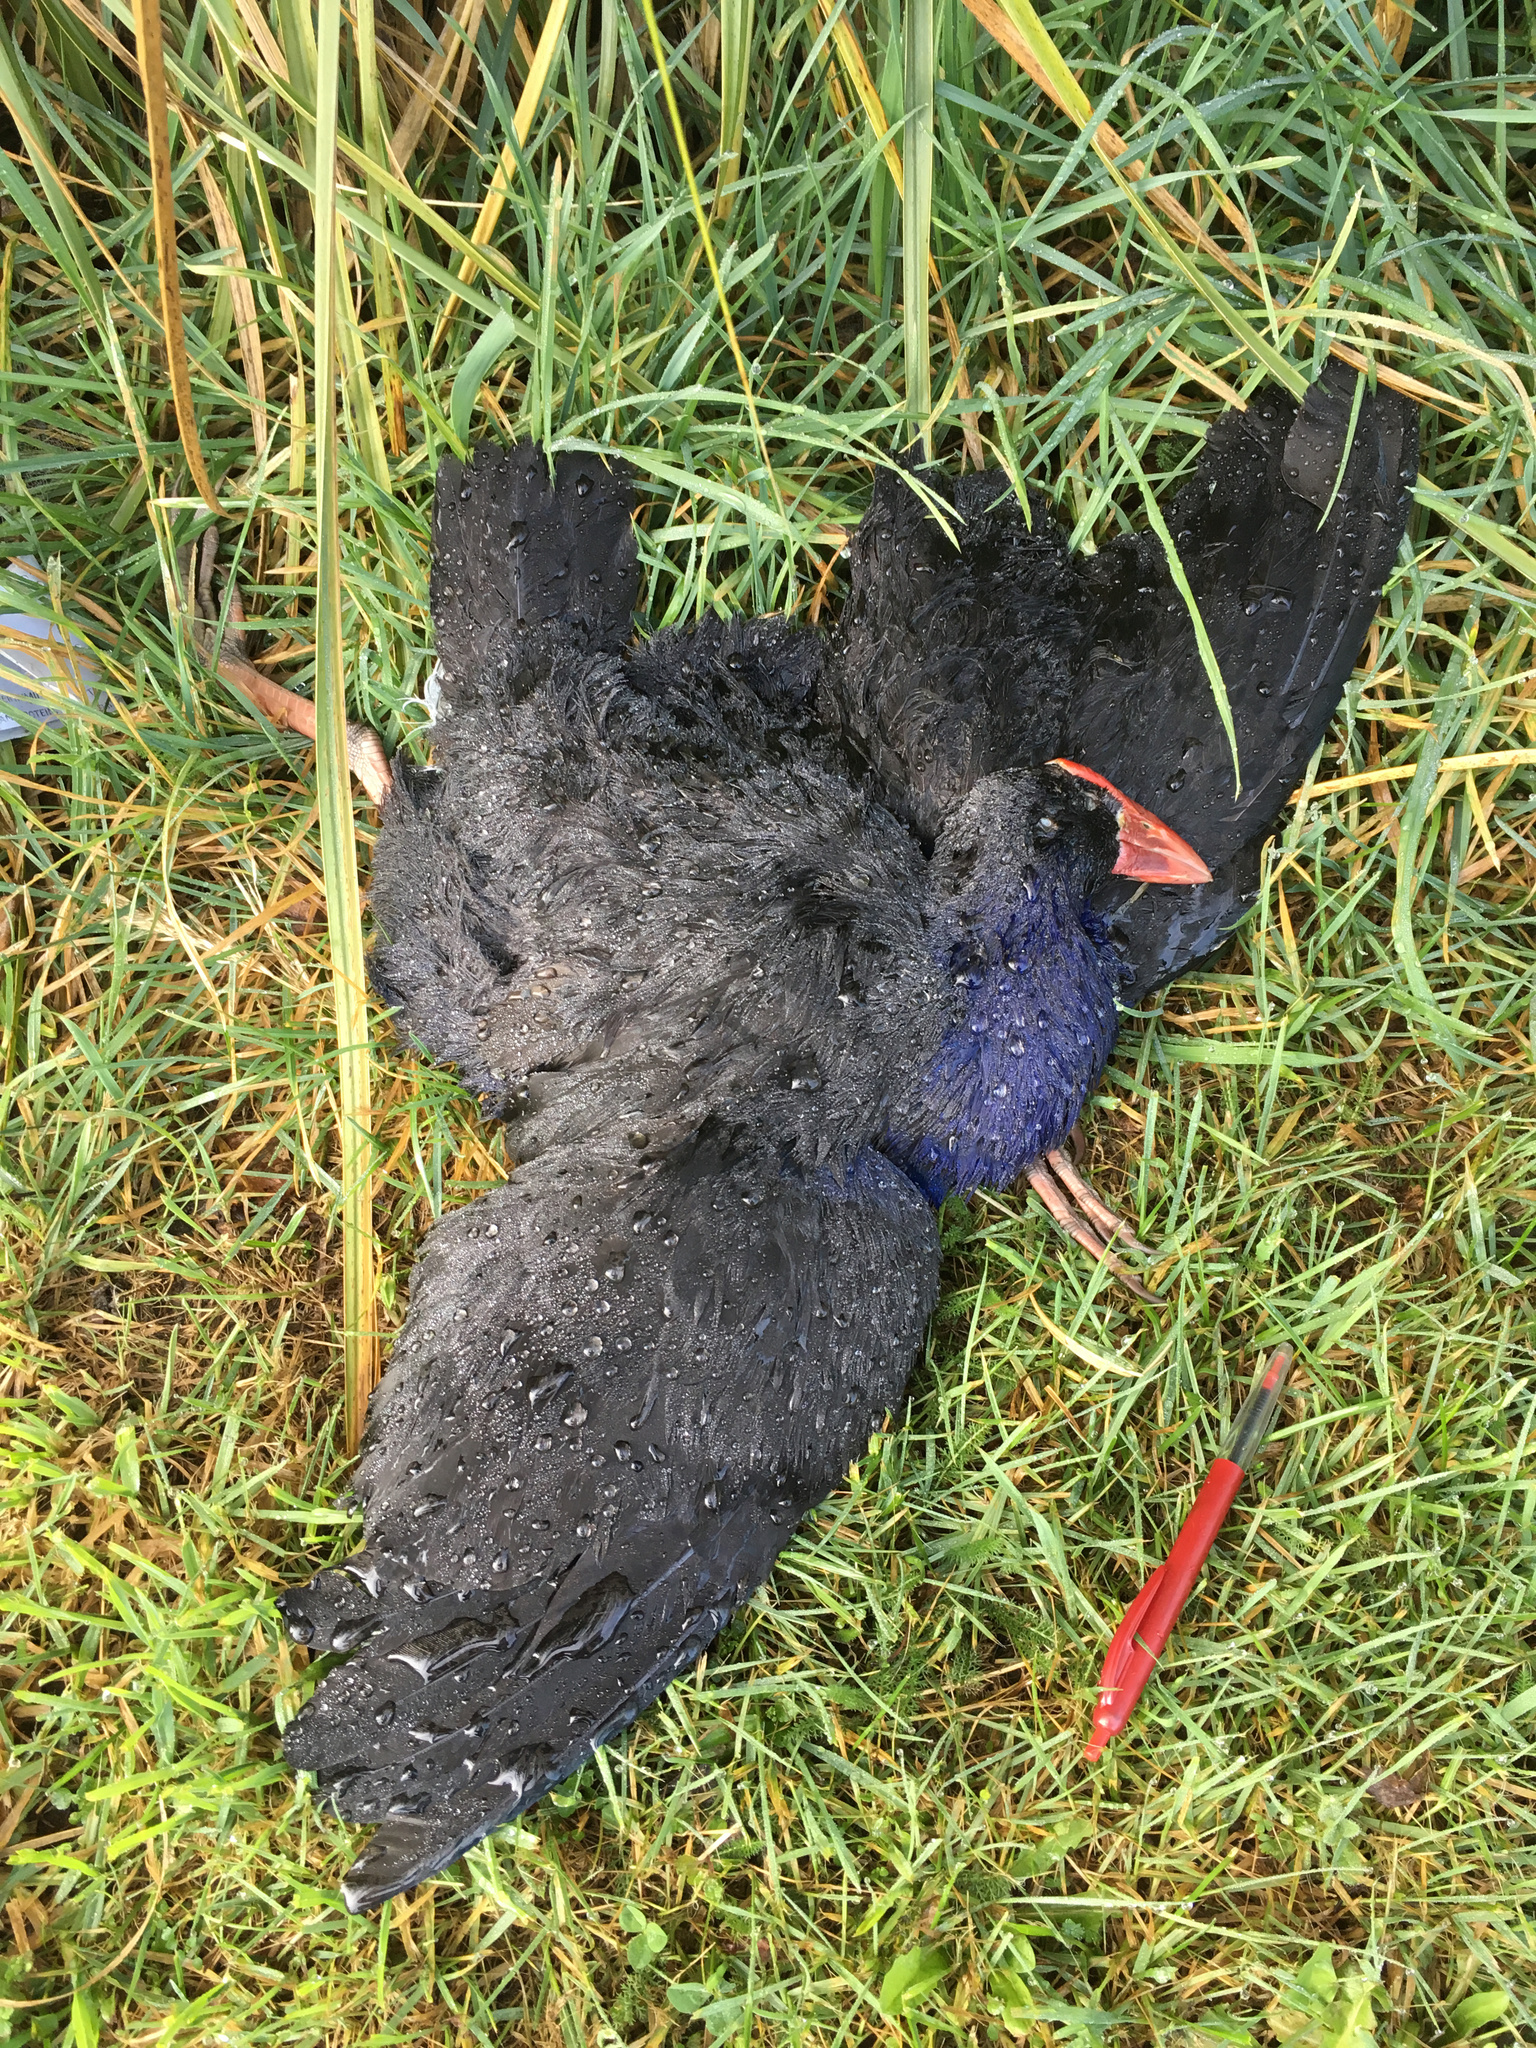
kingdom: Animalia
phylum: Chordata
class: Aves
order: Gruiformes
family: Rallidae
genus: Porphyrio
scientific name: Porphyrio melanotus
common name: Australasian swamphen
